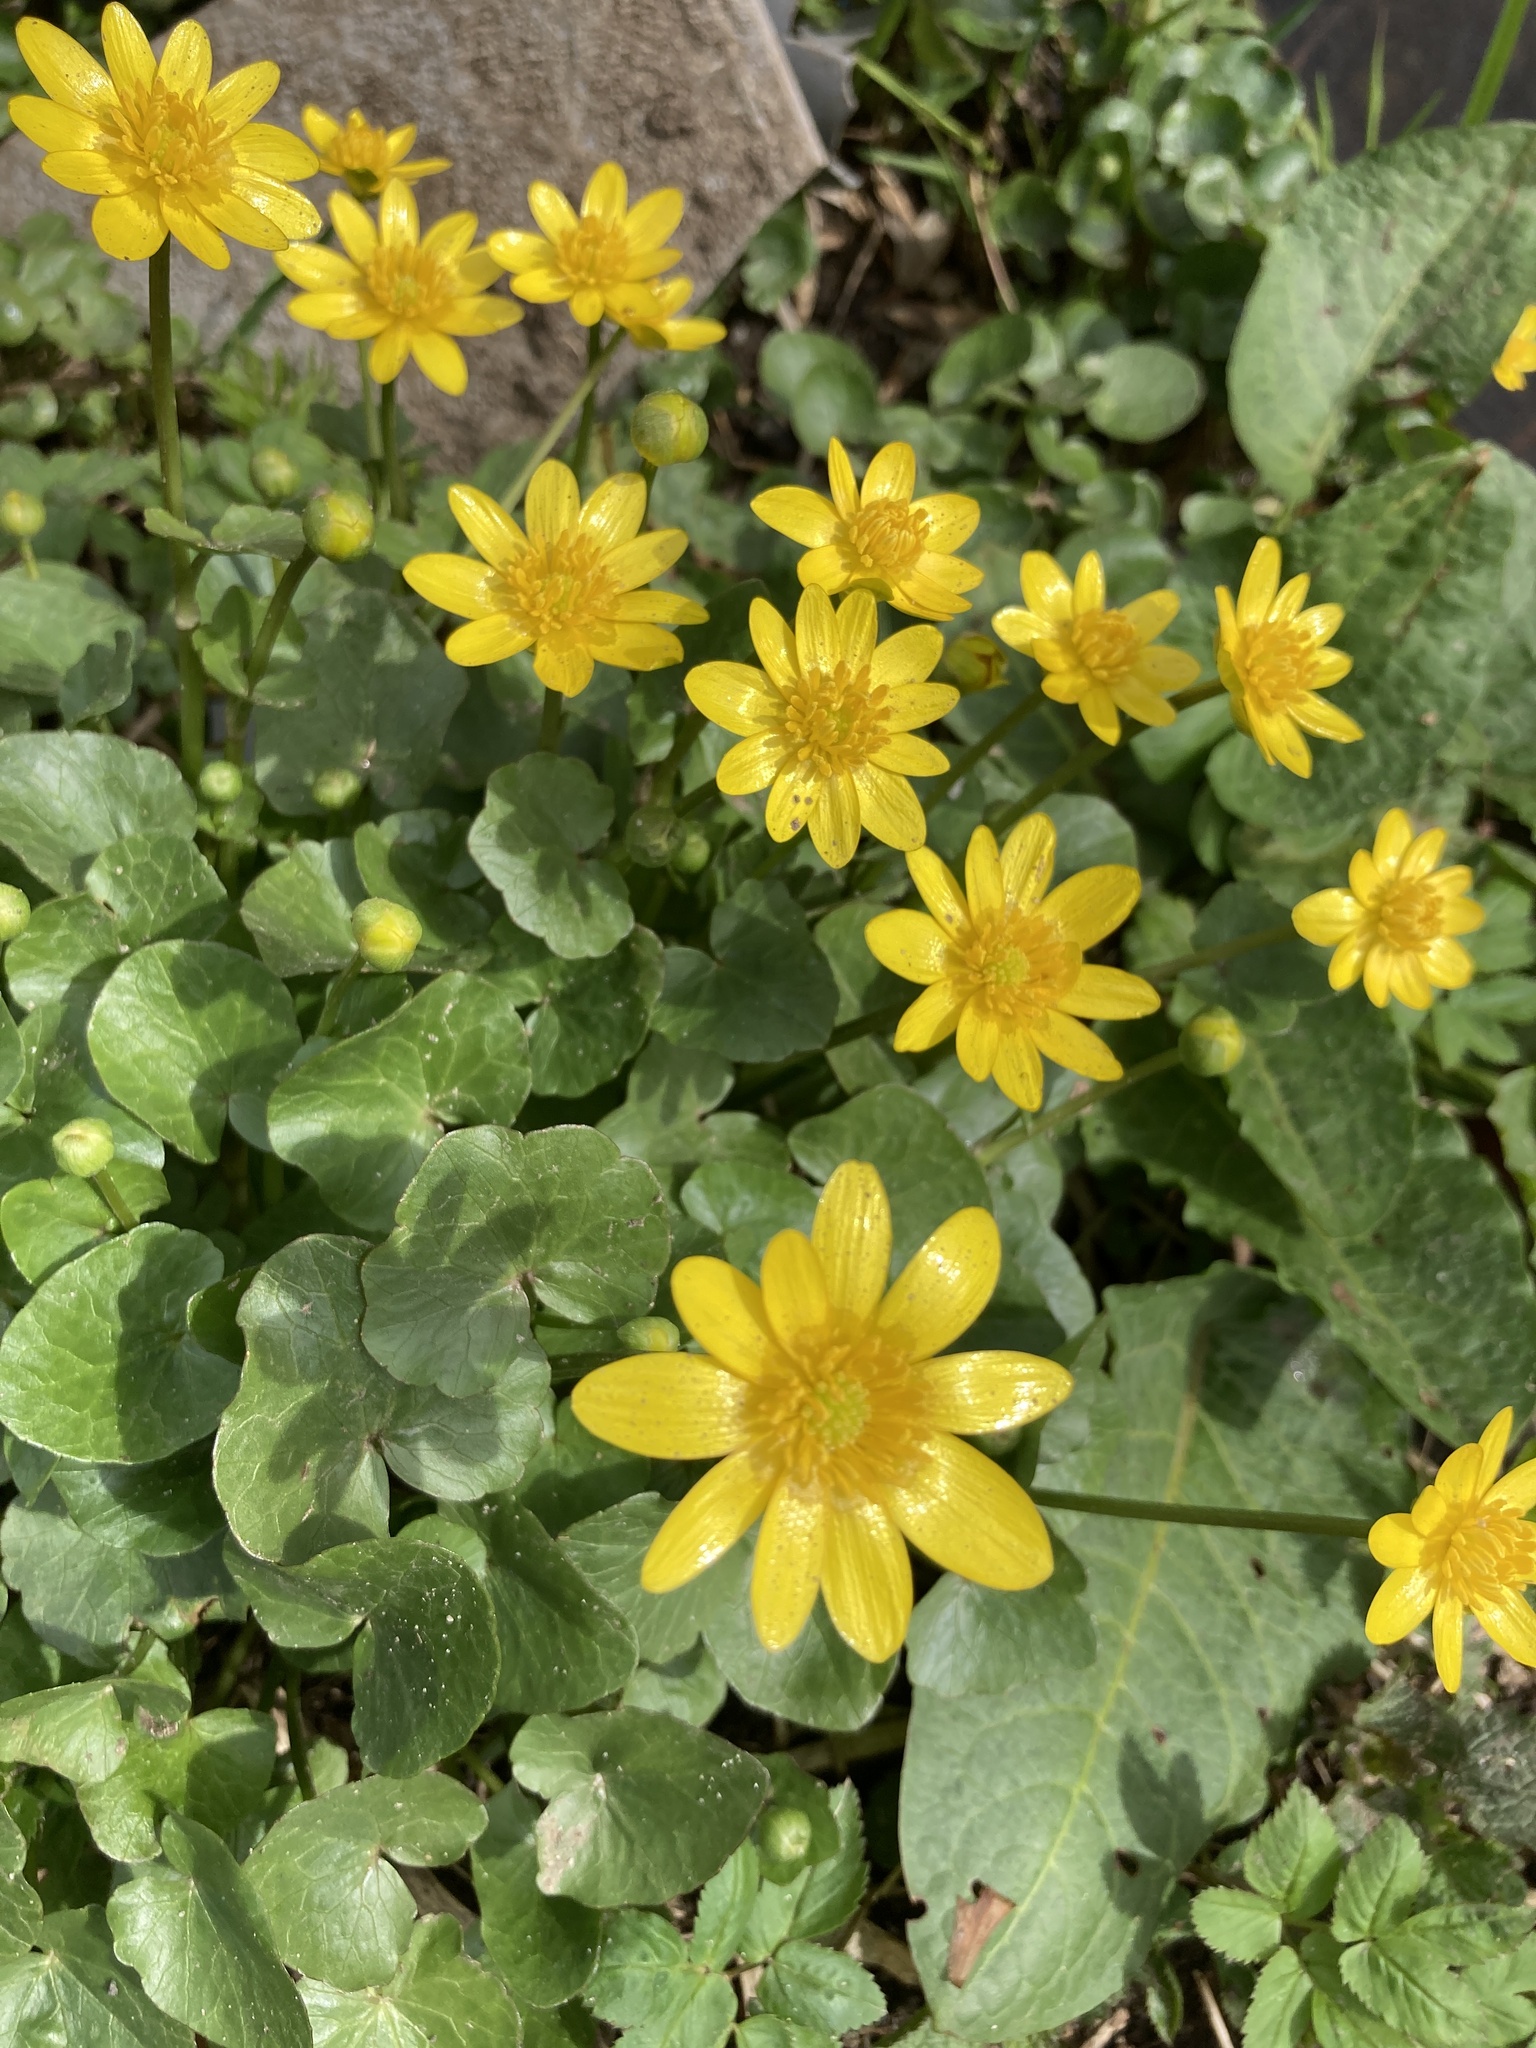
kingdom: Plantae
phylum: Tracheophyta
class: Magnoliopsida
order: Ranunculales
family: Ranunculaceae
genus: Ficaria
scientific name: Ficaria verna
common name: Lesser celandine
